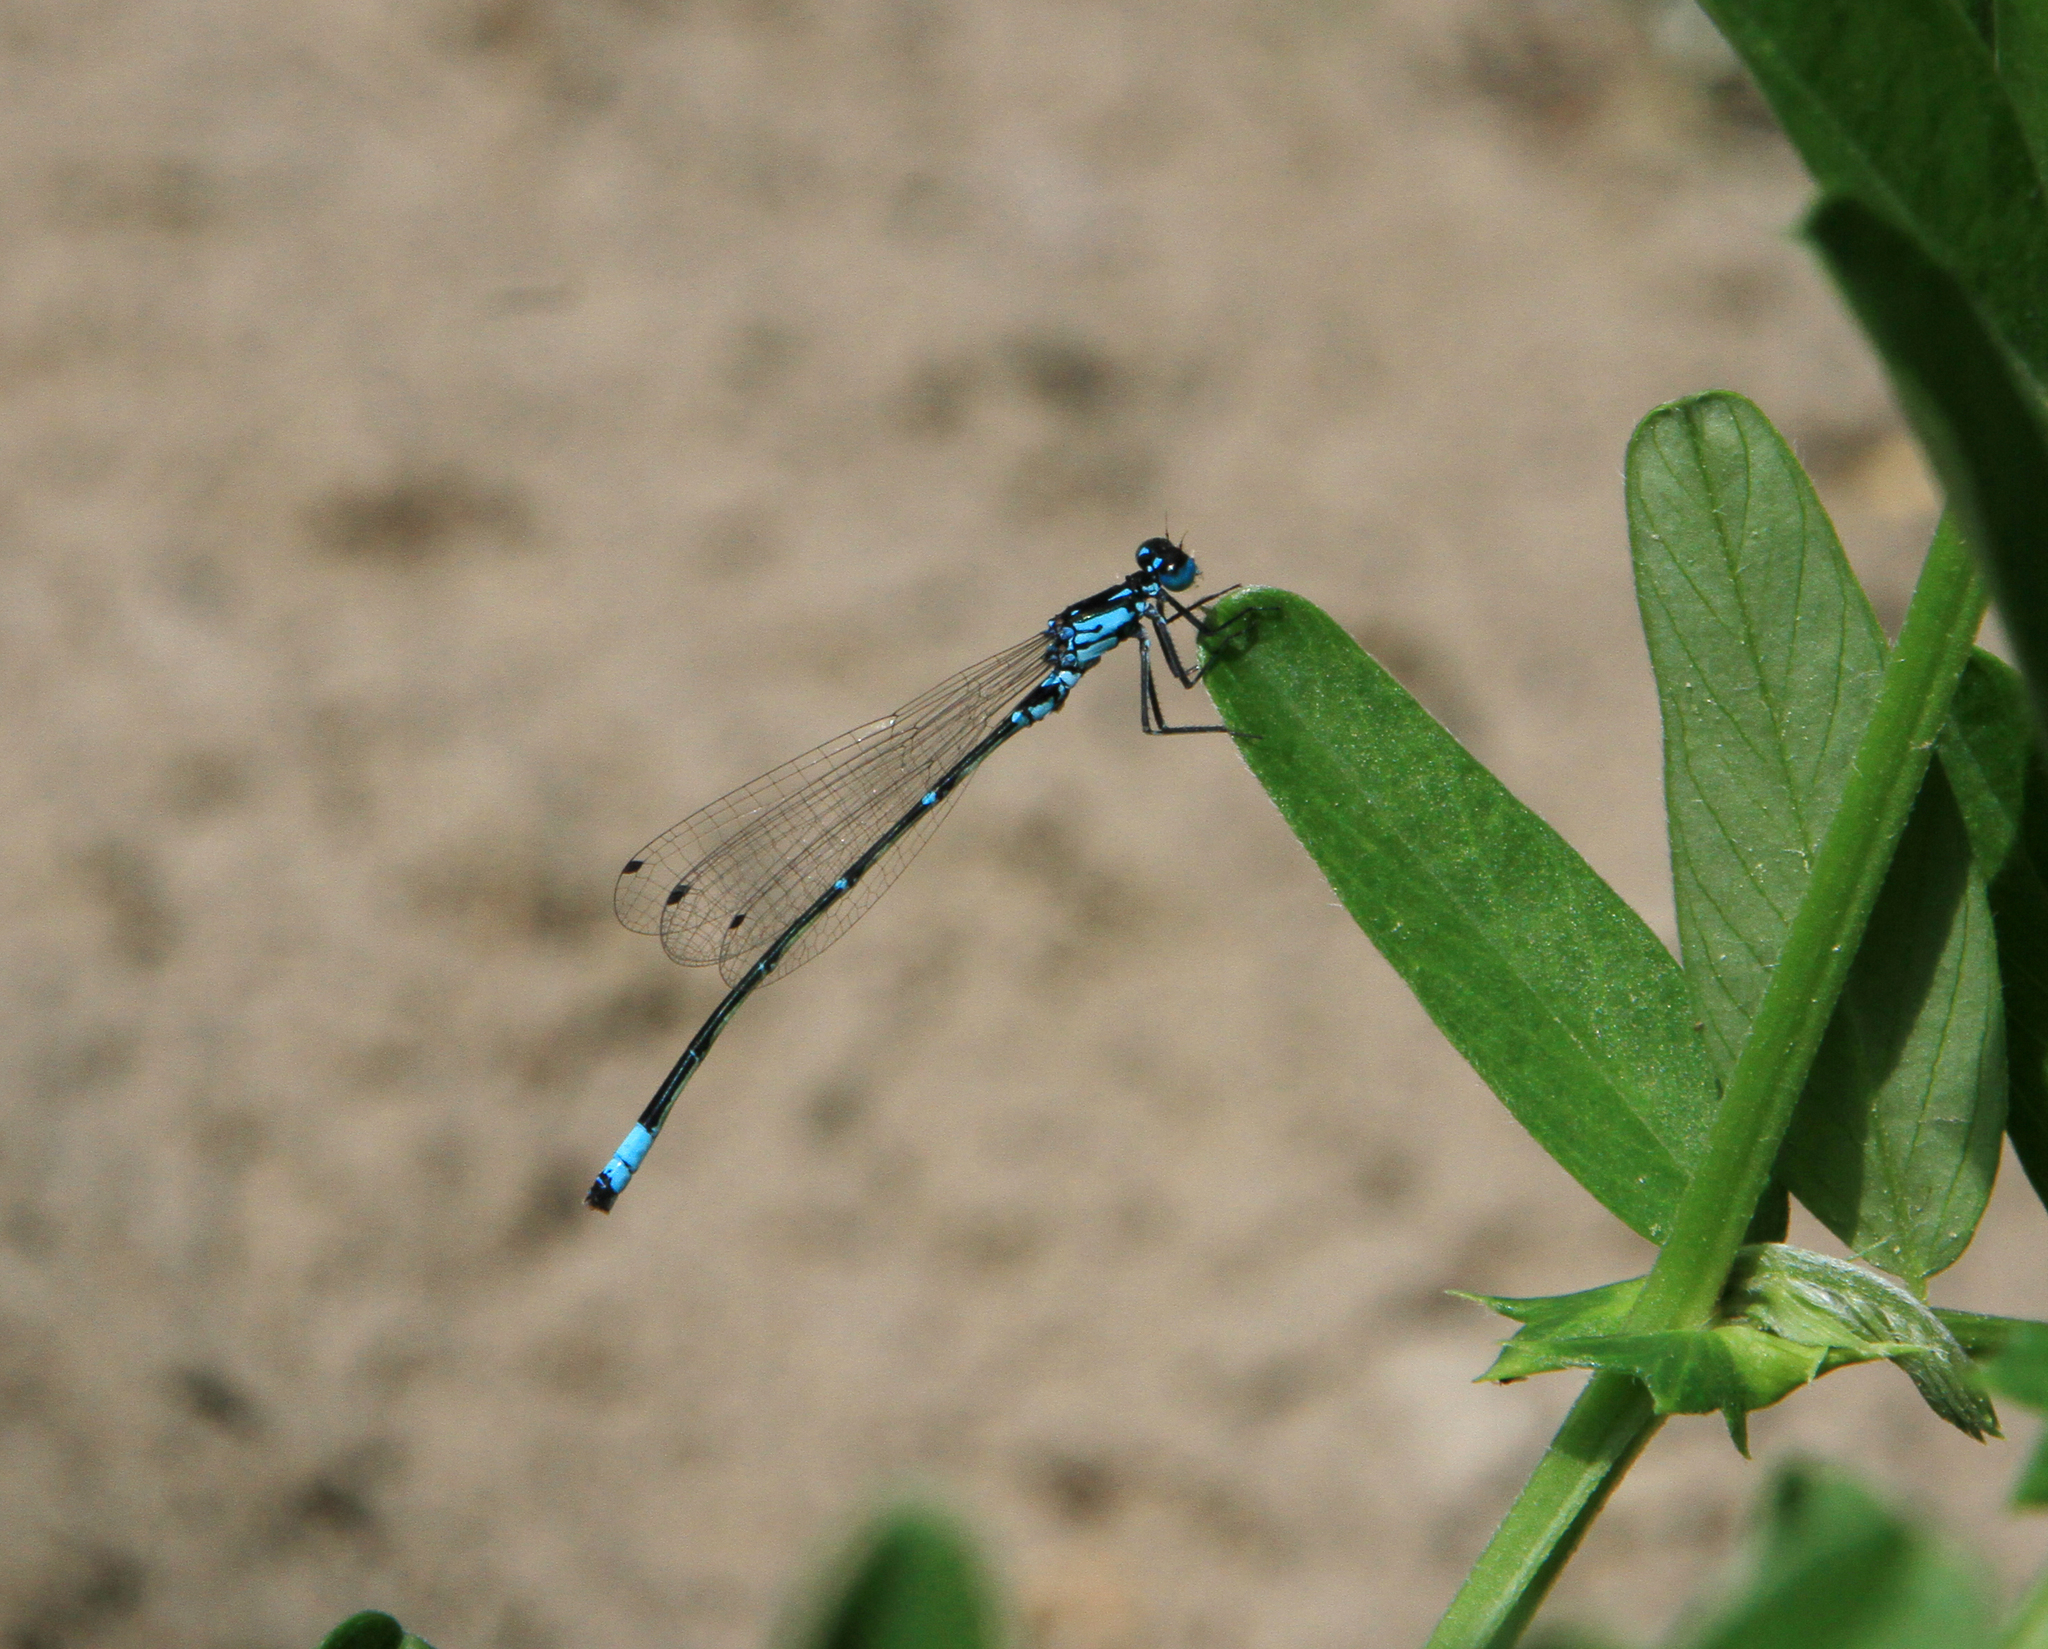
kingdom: Animalia
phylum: Arthropoda
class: Insecta
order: Odonata
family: Coenagrionidae
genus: Coenagrion
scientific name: Coenagrion pulchellum
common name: Variable bluet
